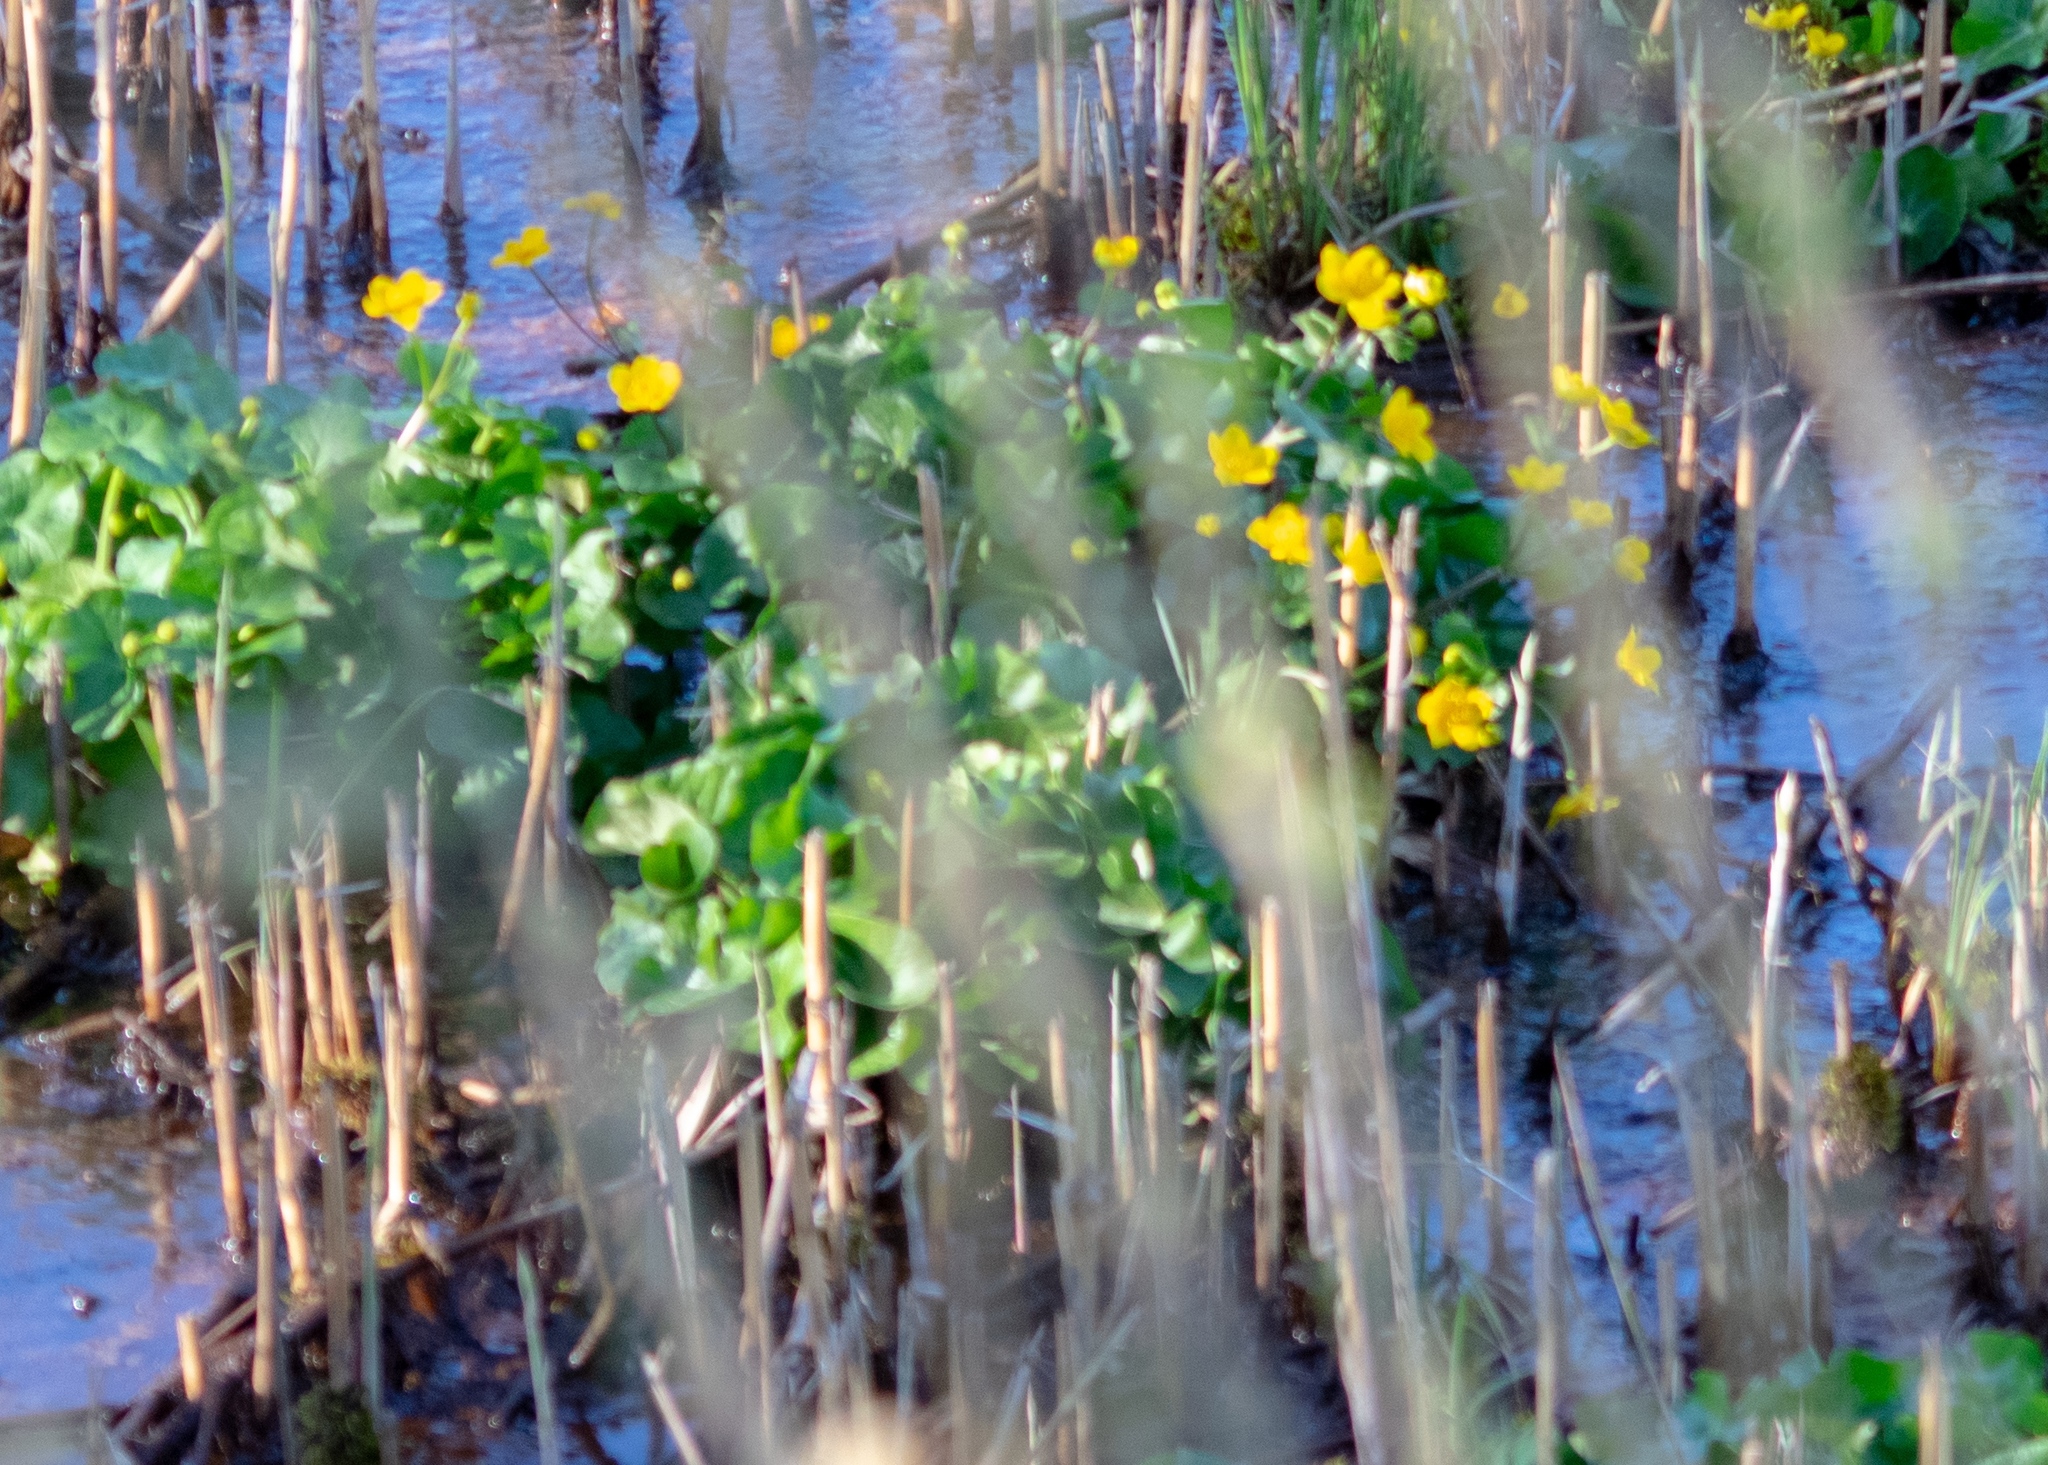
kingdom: Plantae
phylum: Tracheophyta
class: Magnoliopsida
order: Ranunculales
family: Ranunculaceae
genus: Caltha
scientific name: Caltha palustris
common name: Marsh marigold
